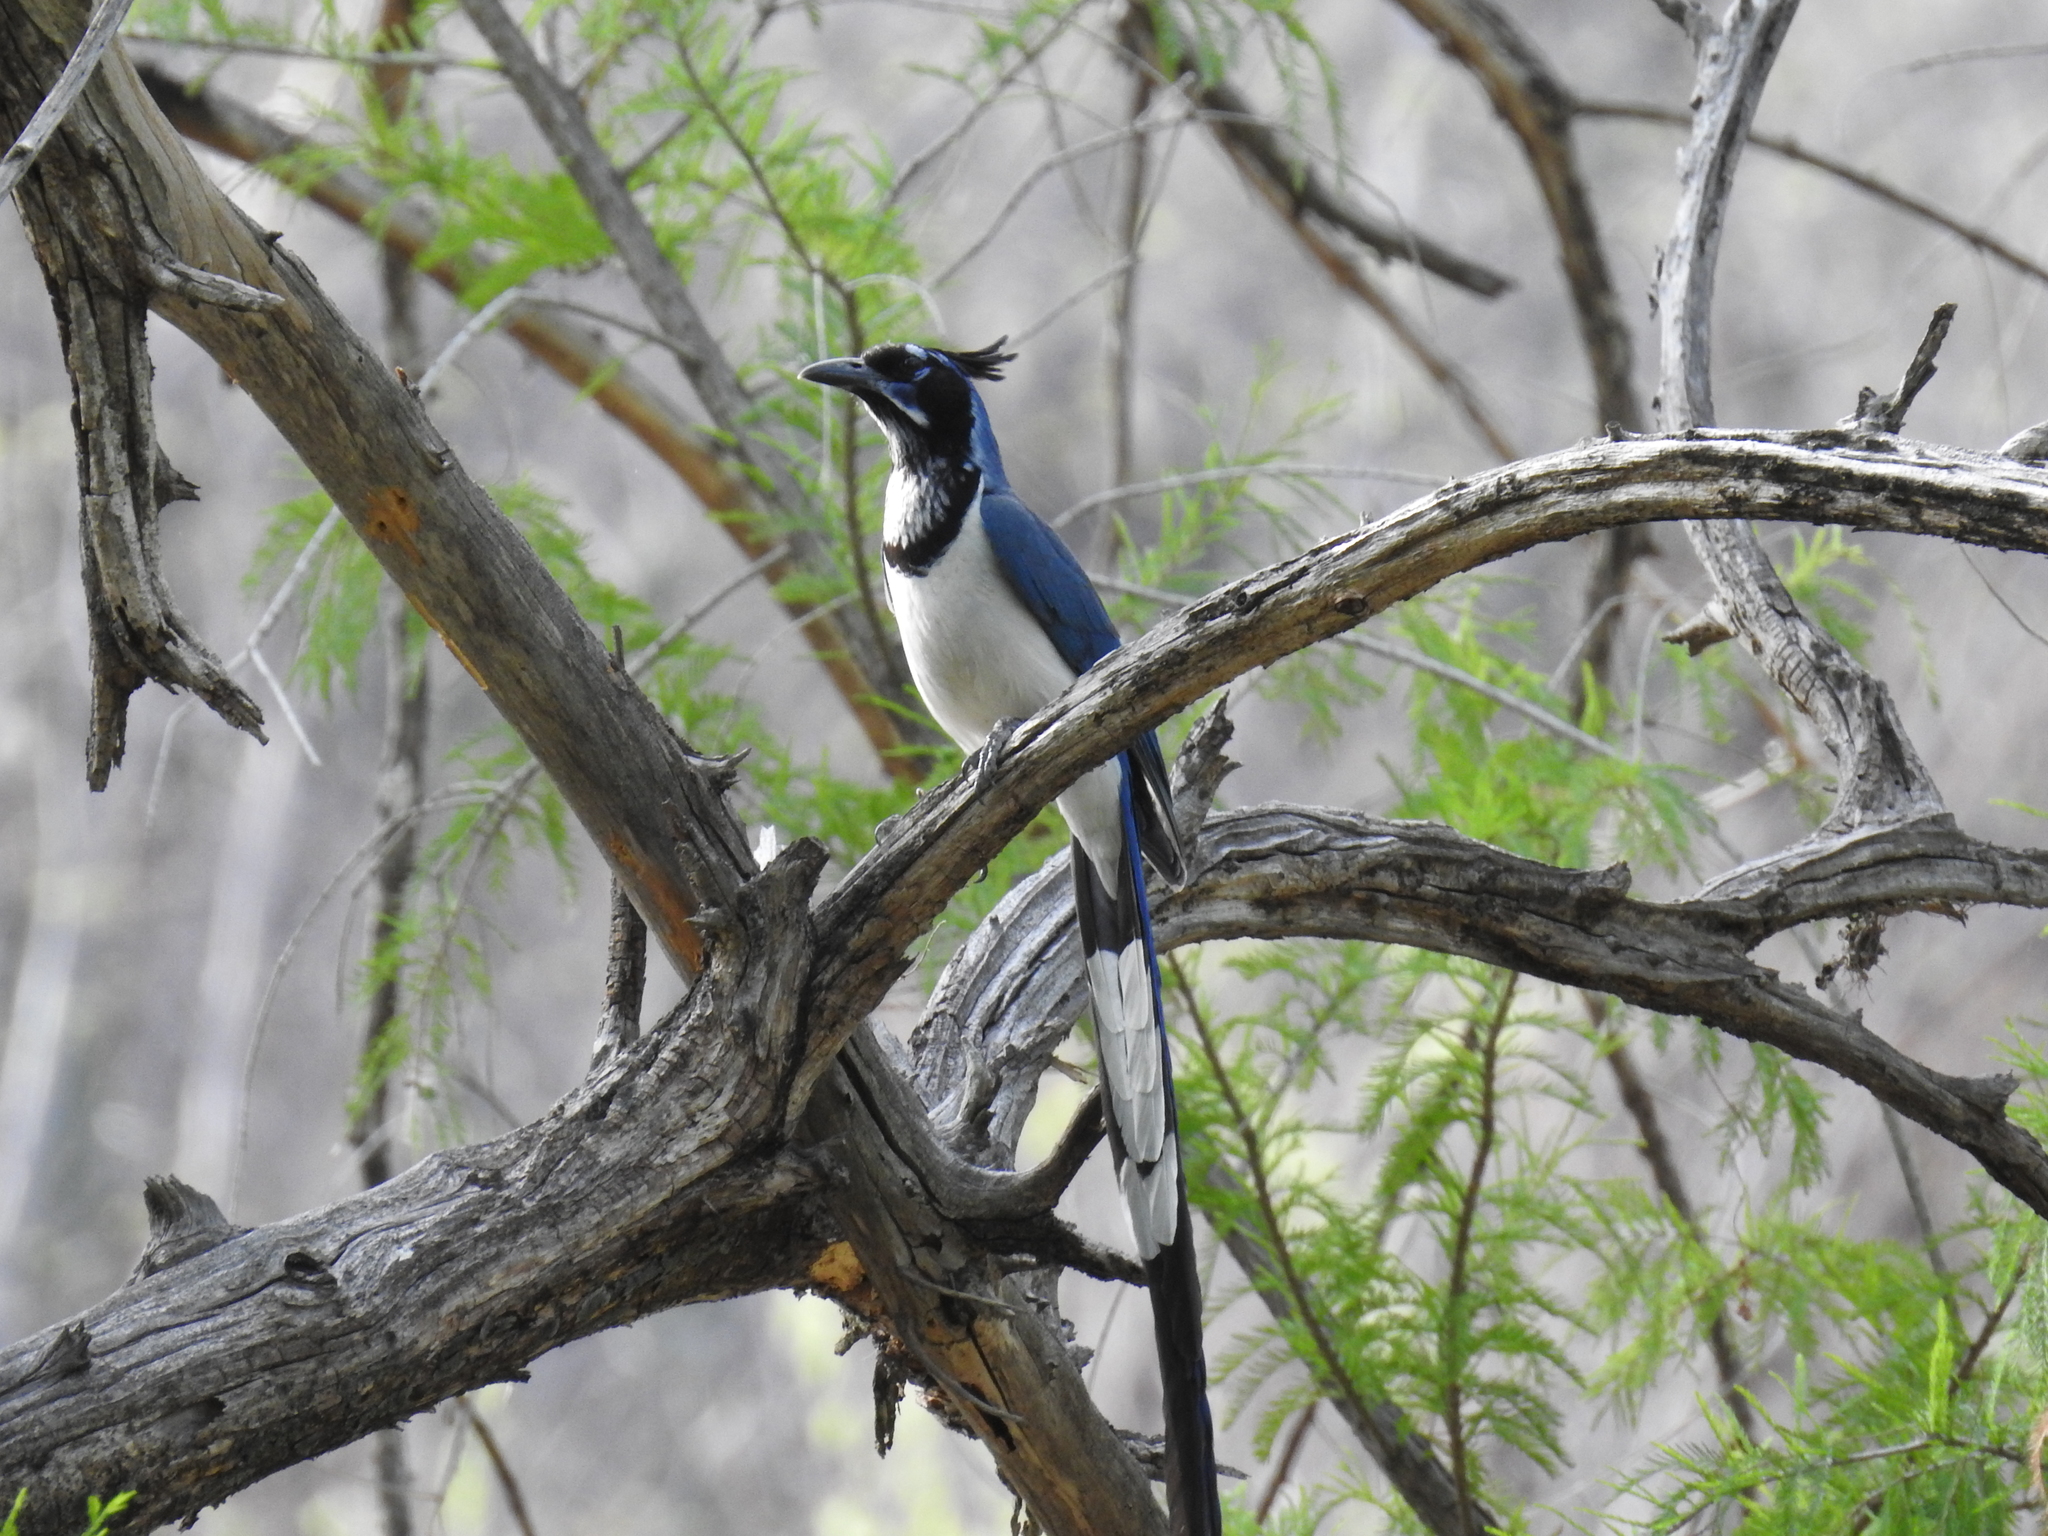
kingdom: Animalia
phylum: Chordata
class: Aves
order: Passeriformes
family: Corvidae
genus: Calocitta
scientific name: Calocitta colliei
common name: Black-throated magpie-jay
